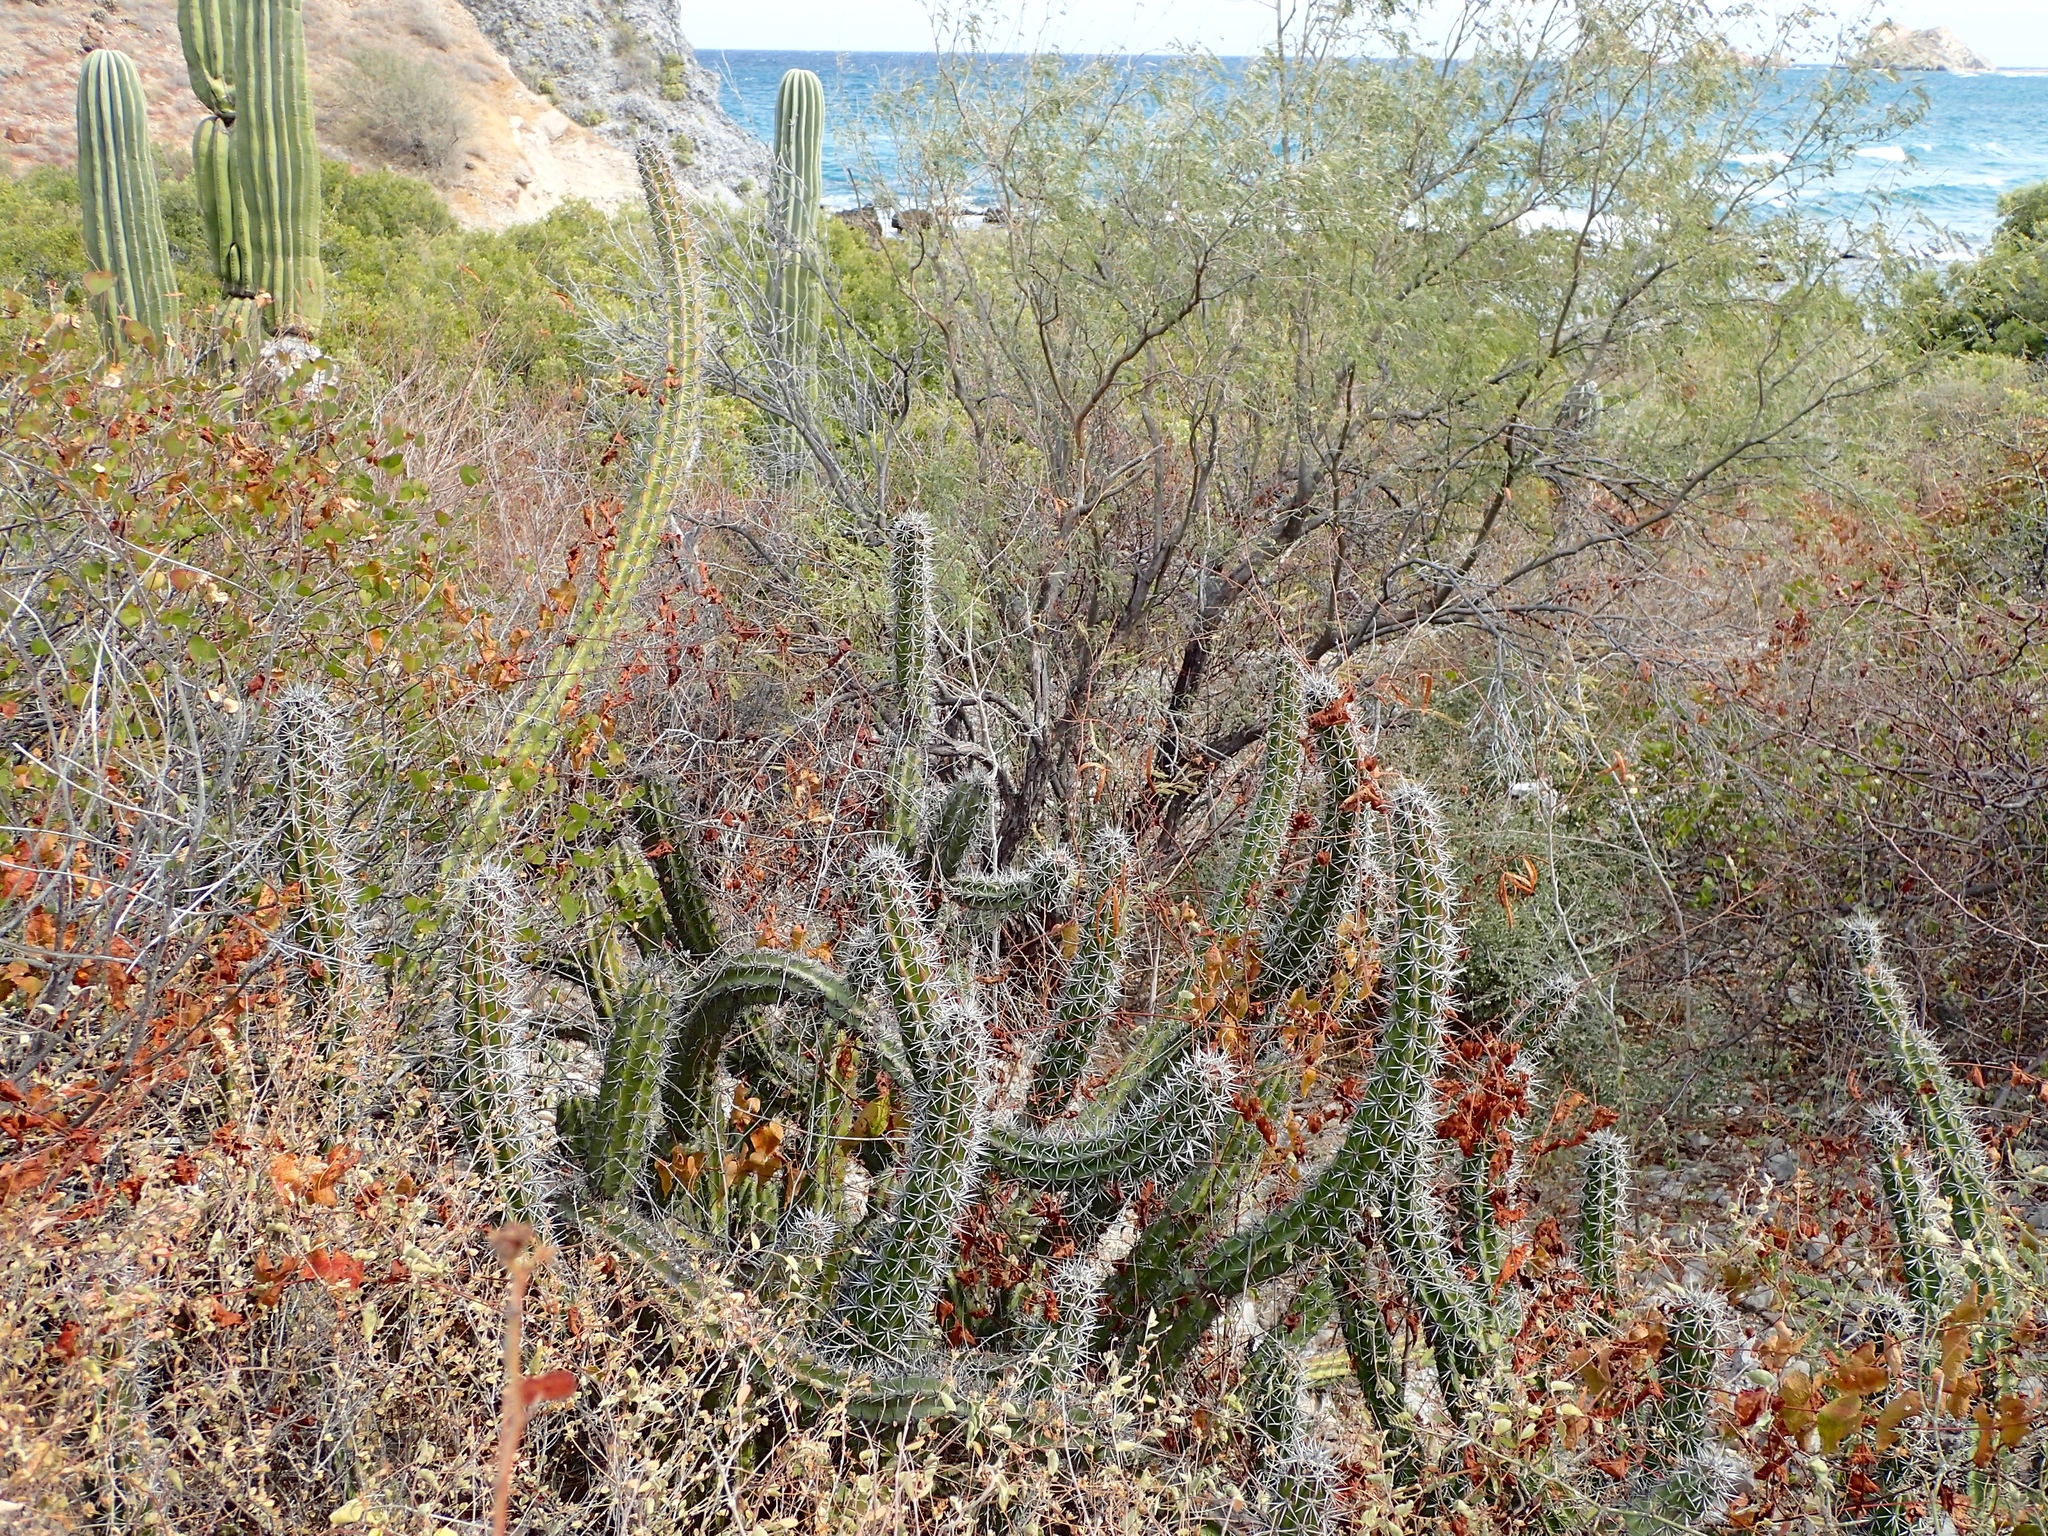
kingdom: Plantae
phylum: Tracheophyta
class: Magnoliopsida
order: Caryophyllales
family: Cactaceae
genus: Stenocereus
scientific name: Stenocereus gummosus
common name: Dagger cactus
